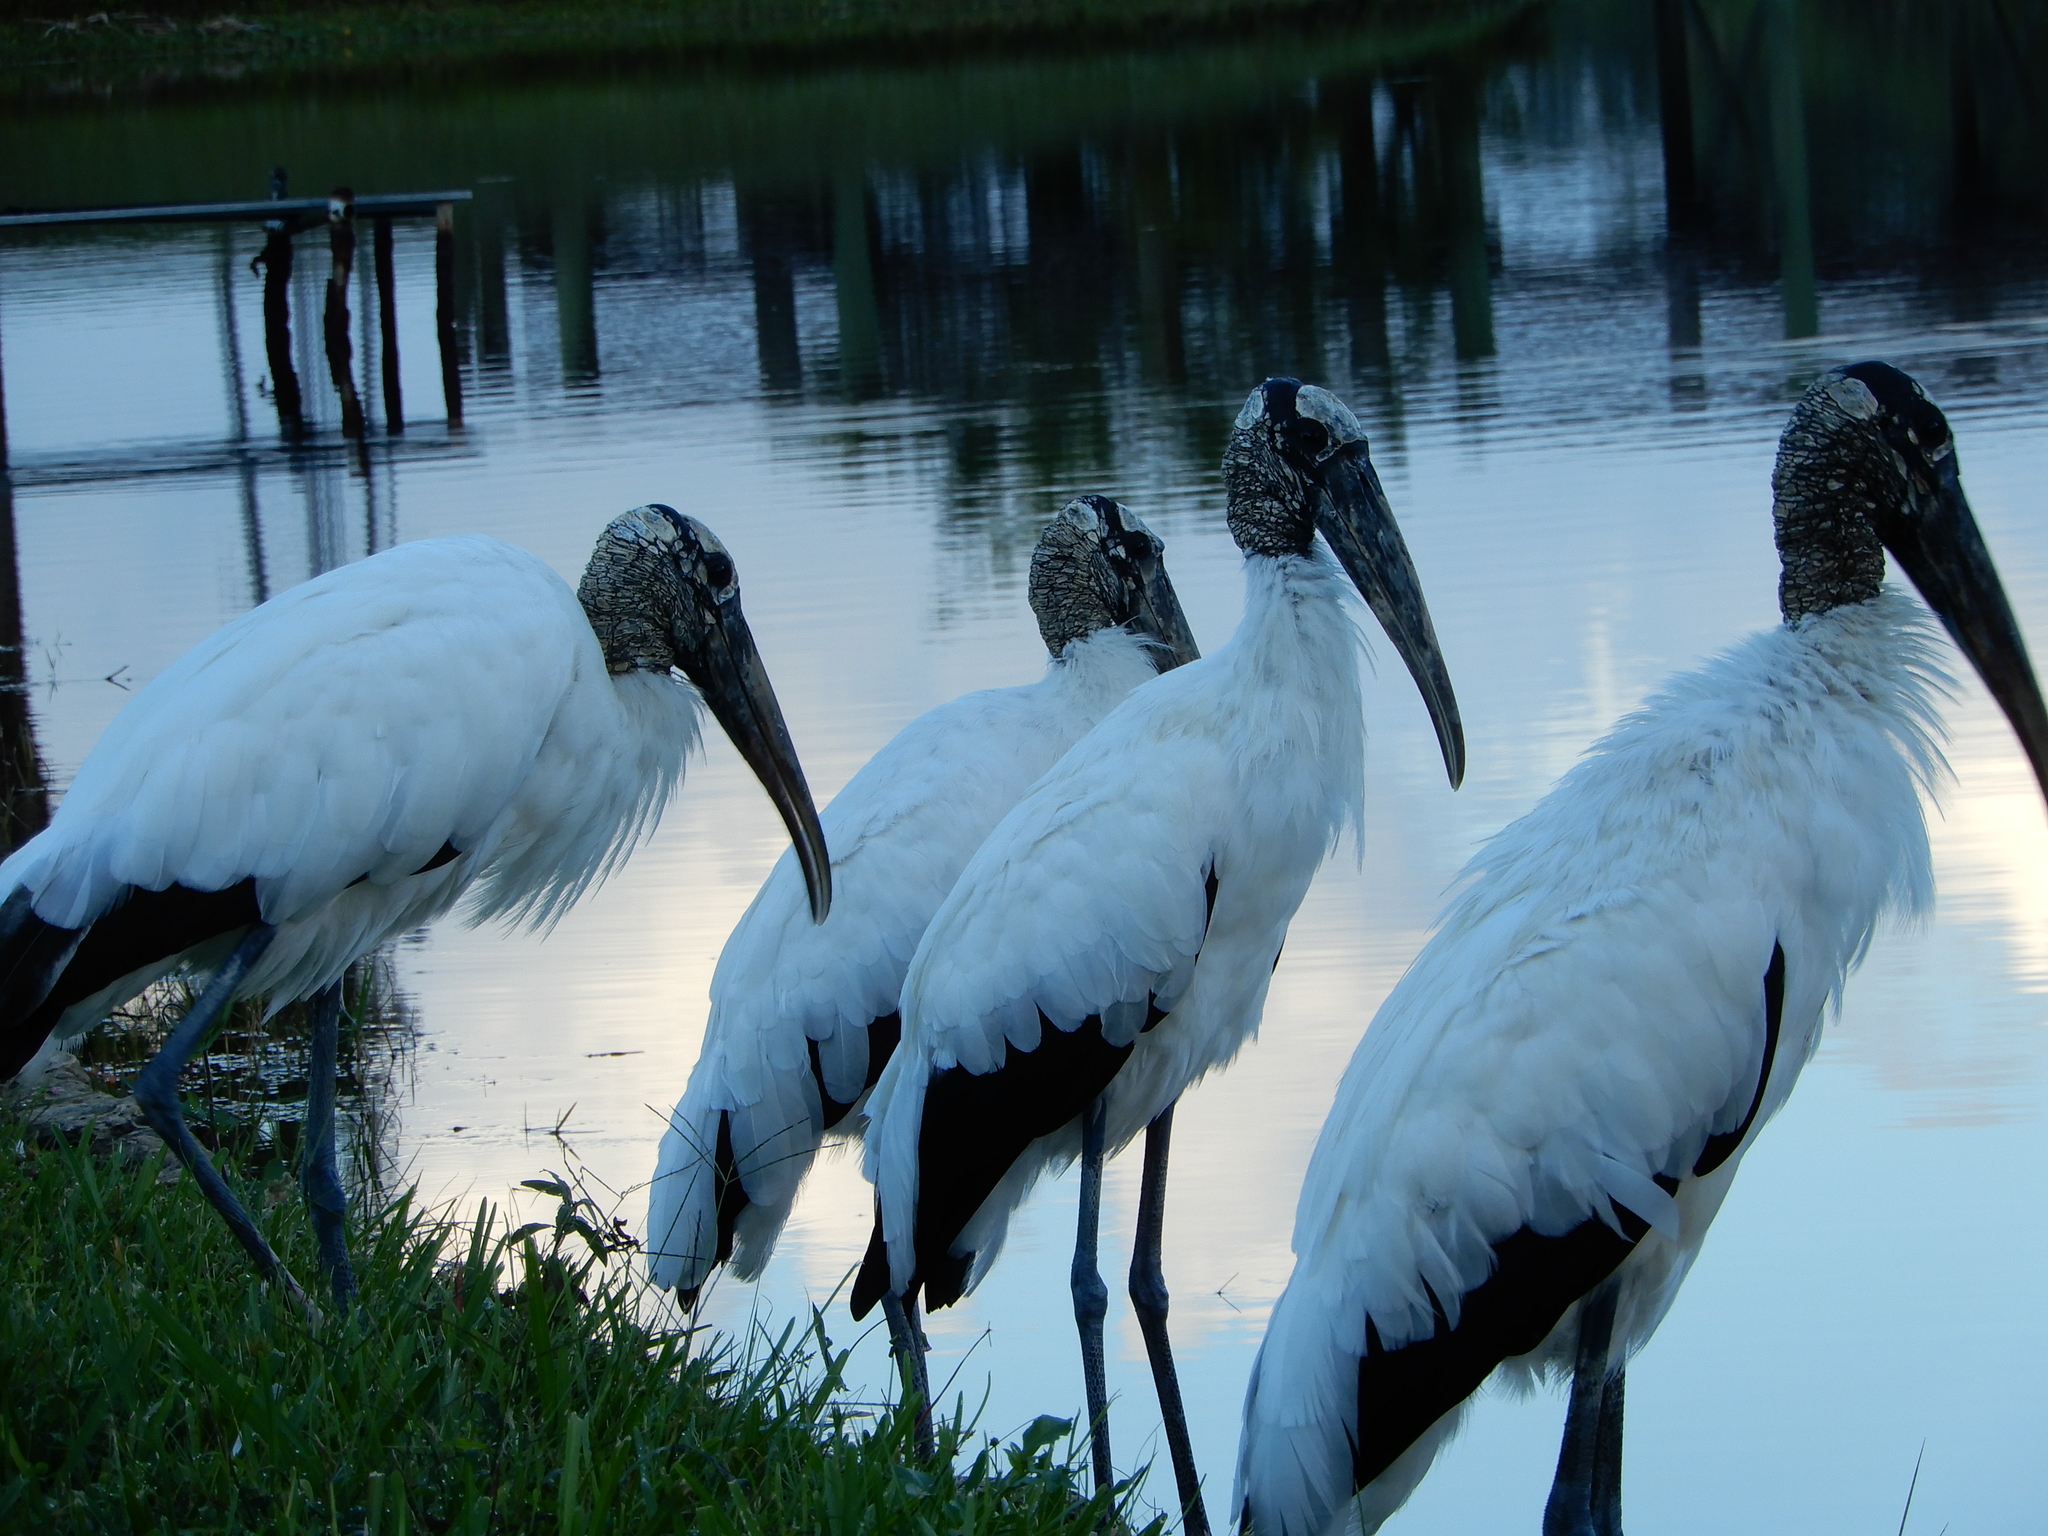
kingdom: Animalia
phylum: Chordata
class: Aves
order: Ciconiiformes
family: Ciconiidae
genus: Mycteria
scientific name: Mycteria americana
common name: Wood stork
